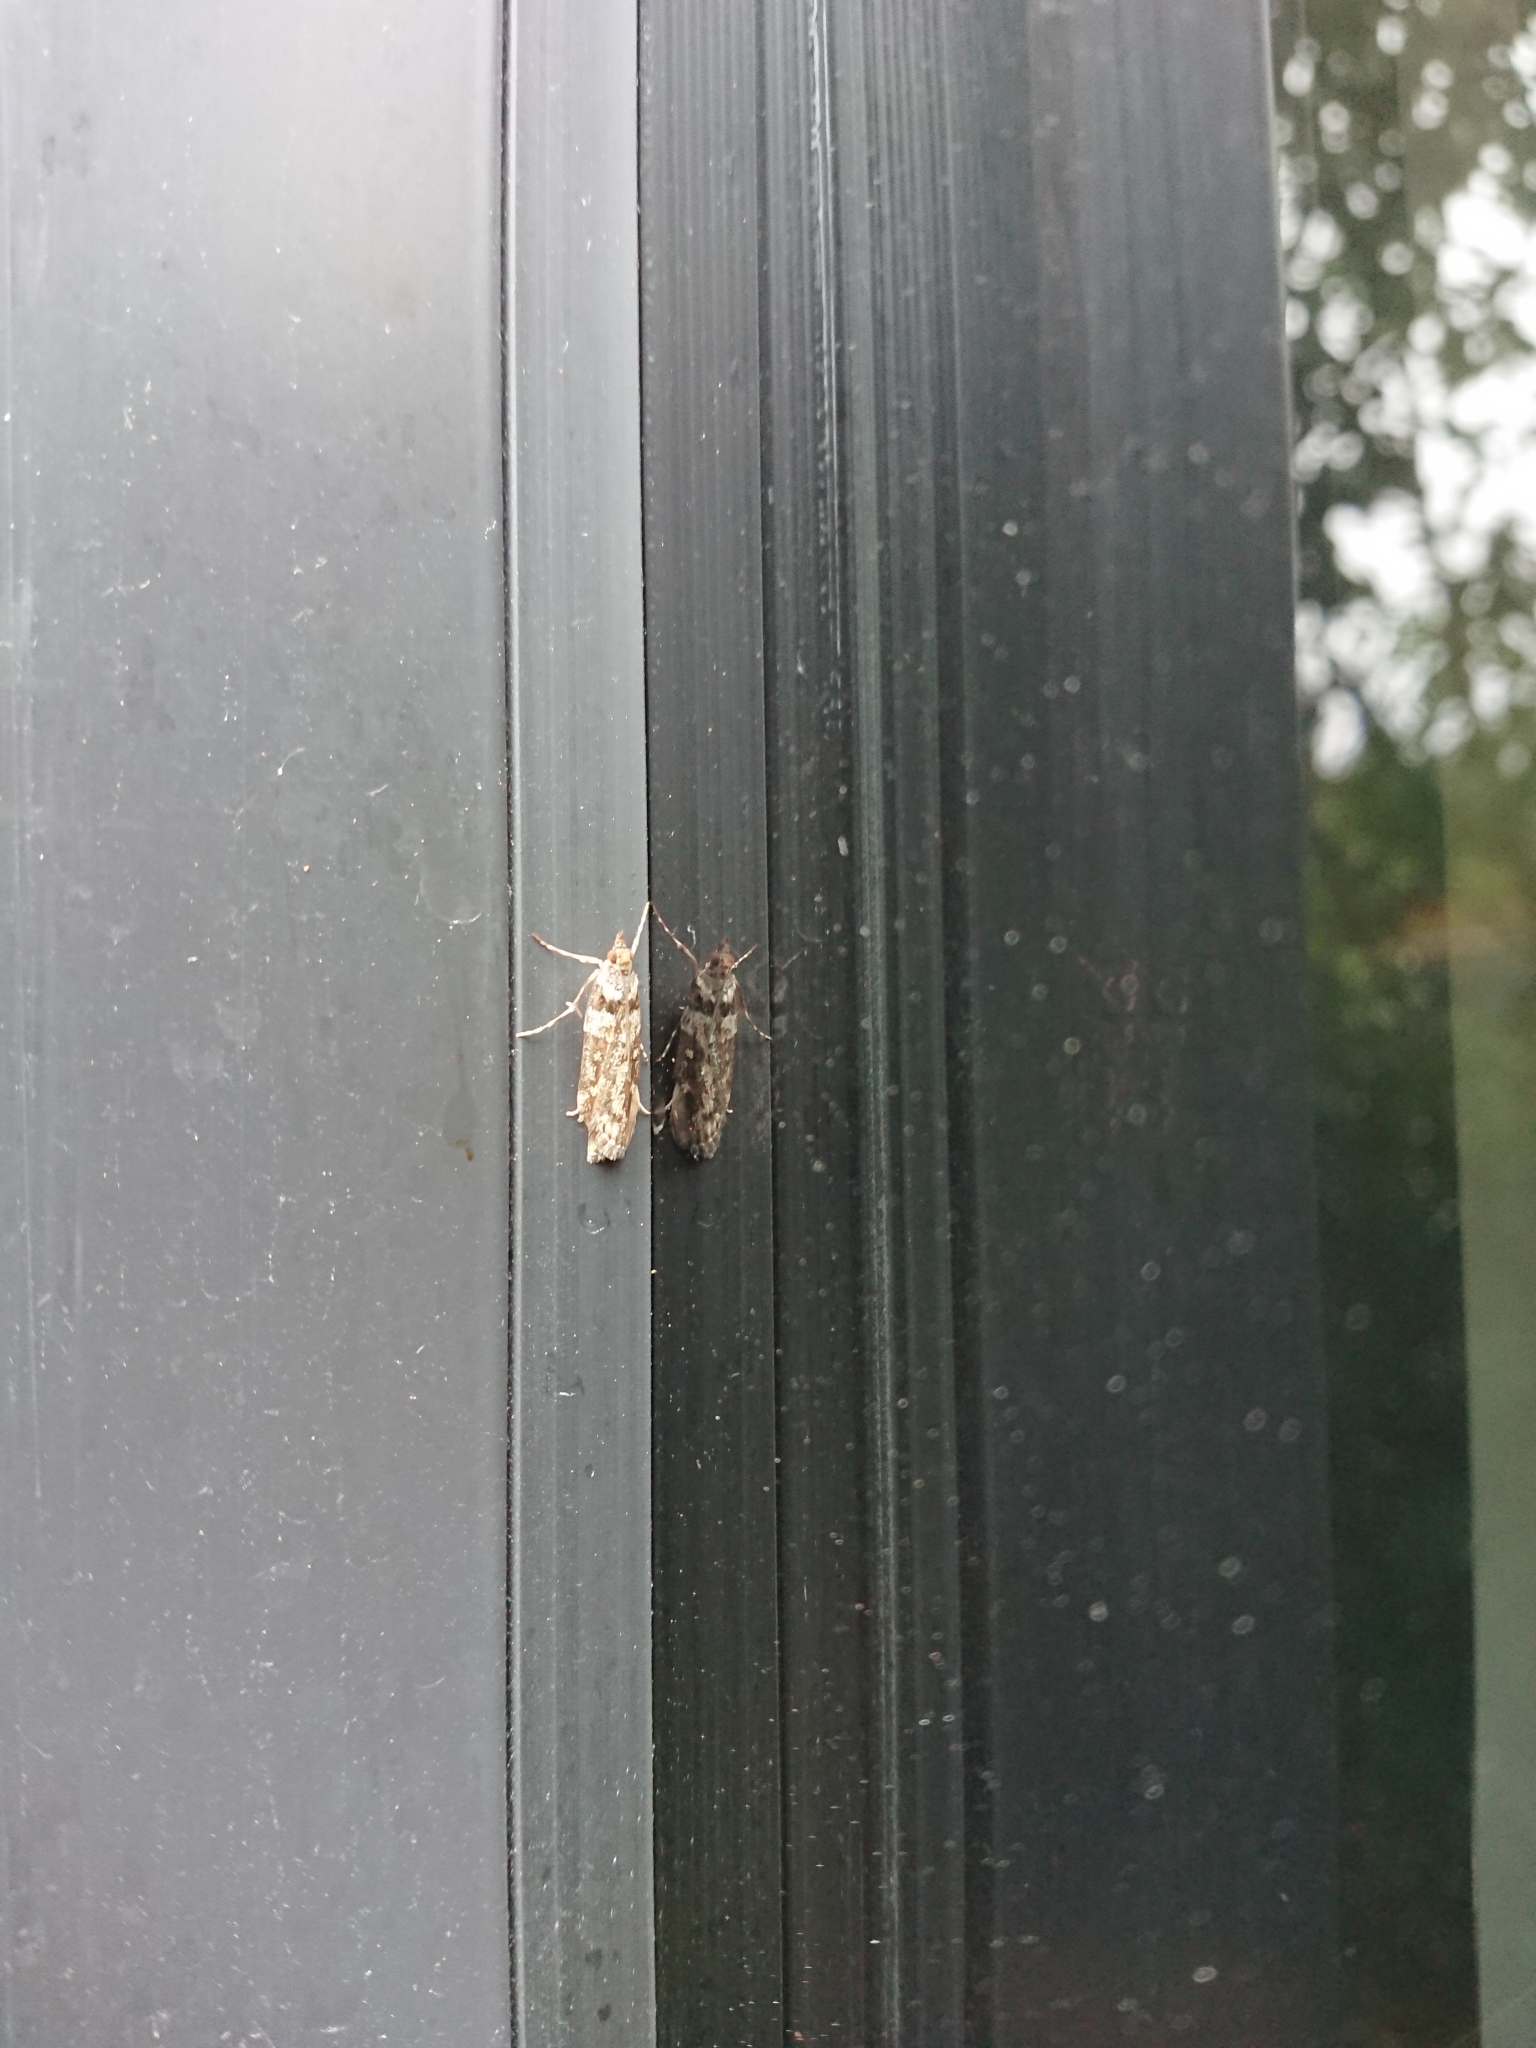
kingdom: Animalia
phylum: Arthropoda
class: Insecta
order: Lepidoptera
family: Crambidae
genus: Eudonia
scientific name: Eudonia diphtheralis
